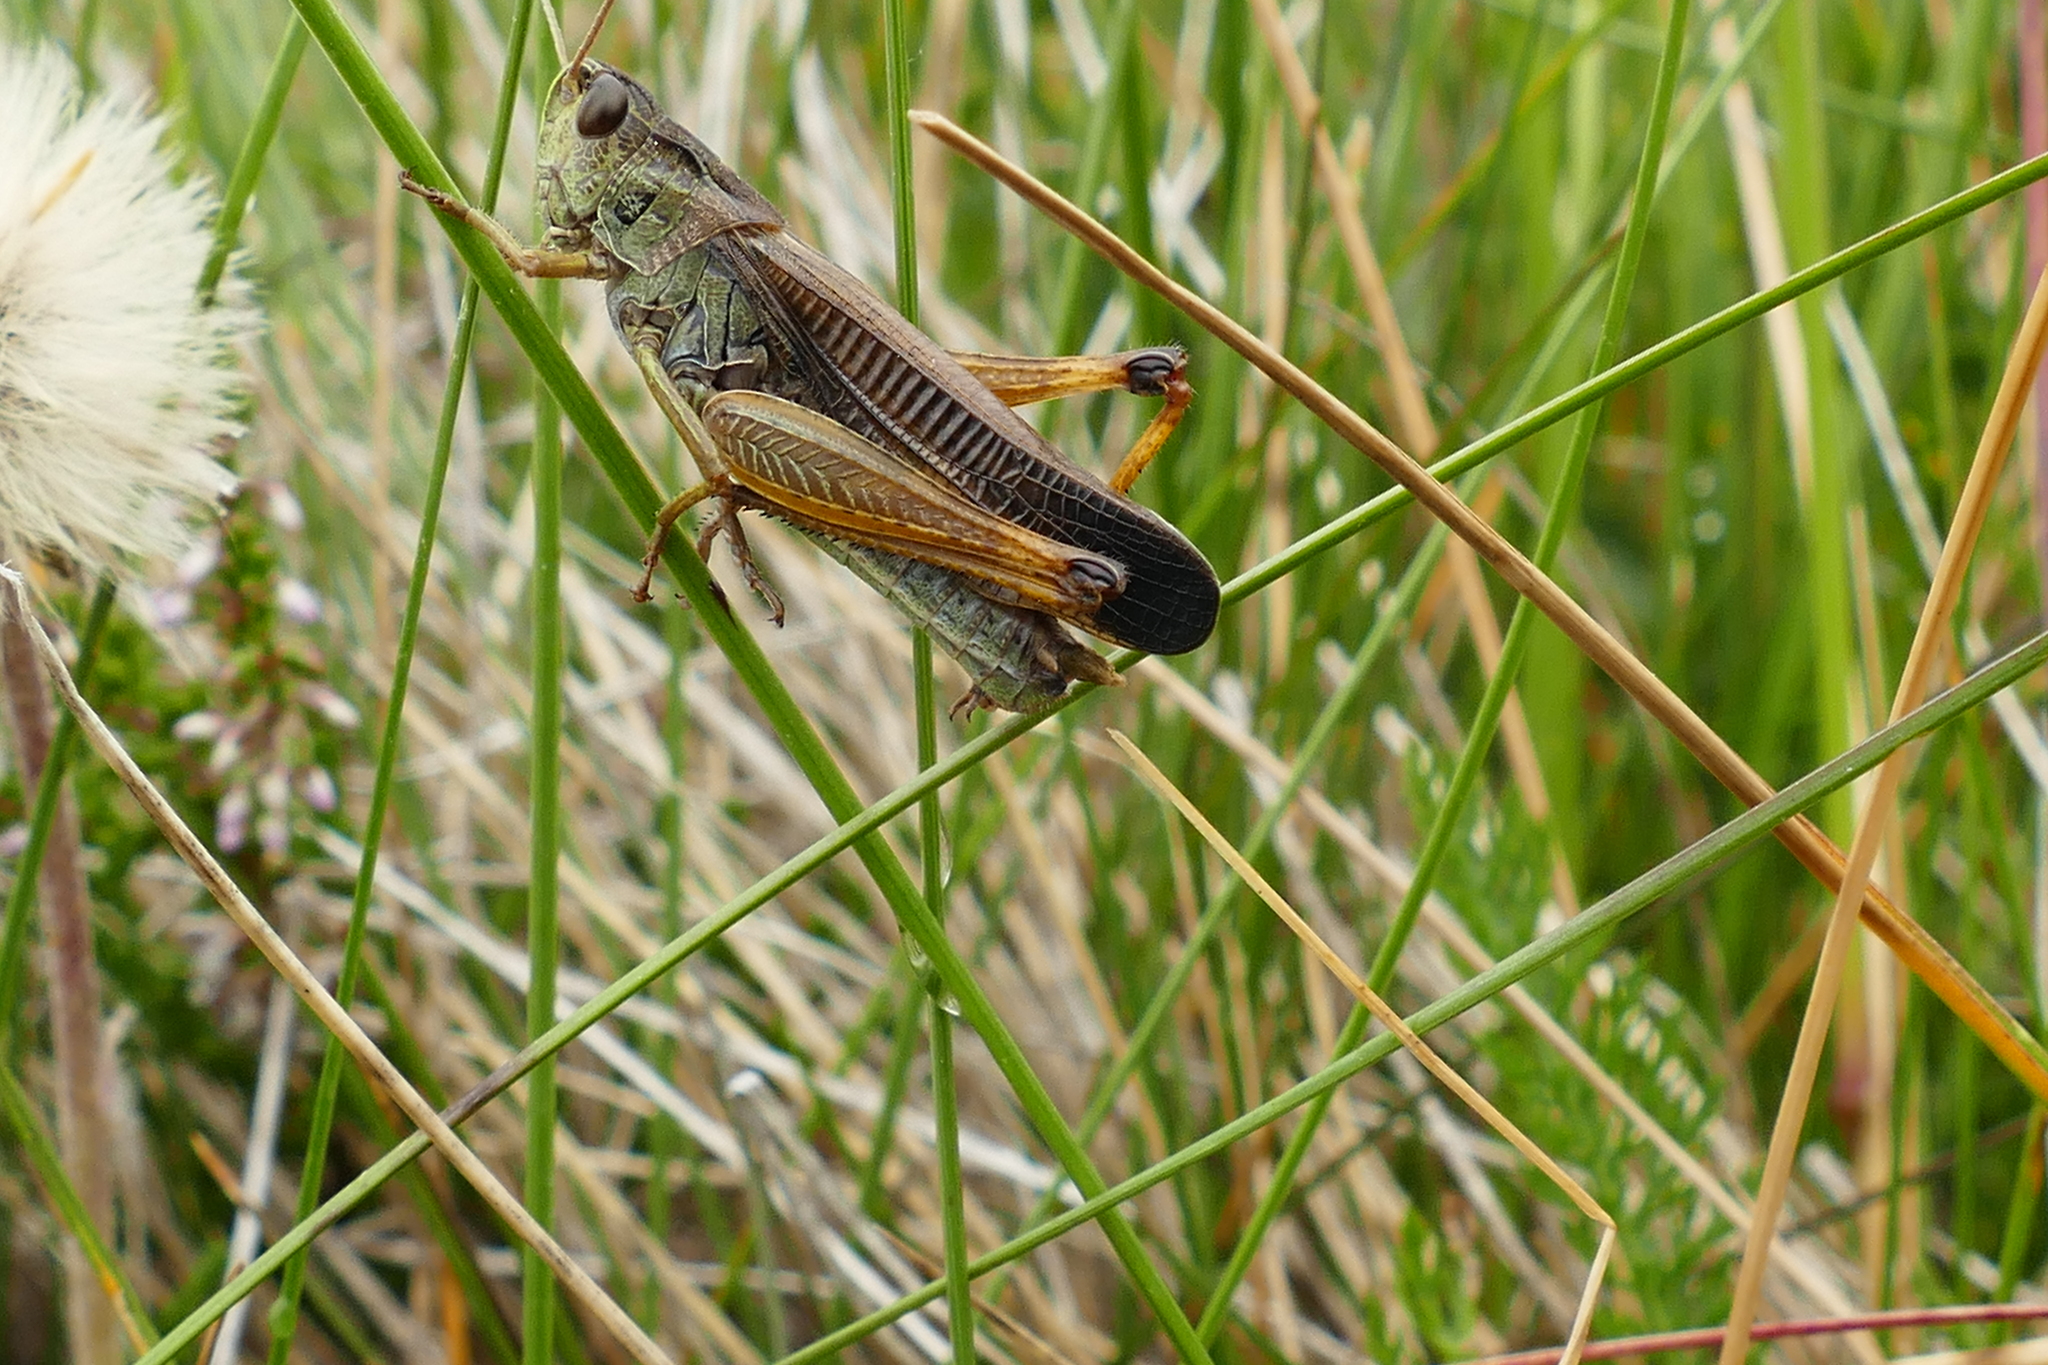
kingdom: Animalia
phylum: Arthropoda
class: Insecta
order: Orthoptera
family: Acrididae
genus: Stauroderus
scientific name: Stauroderus scalaris
